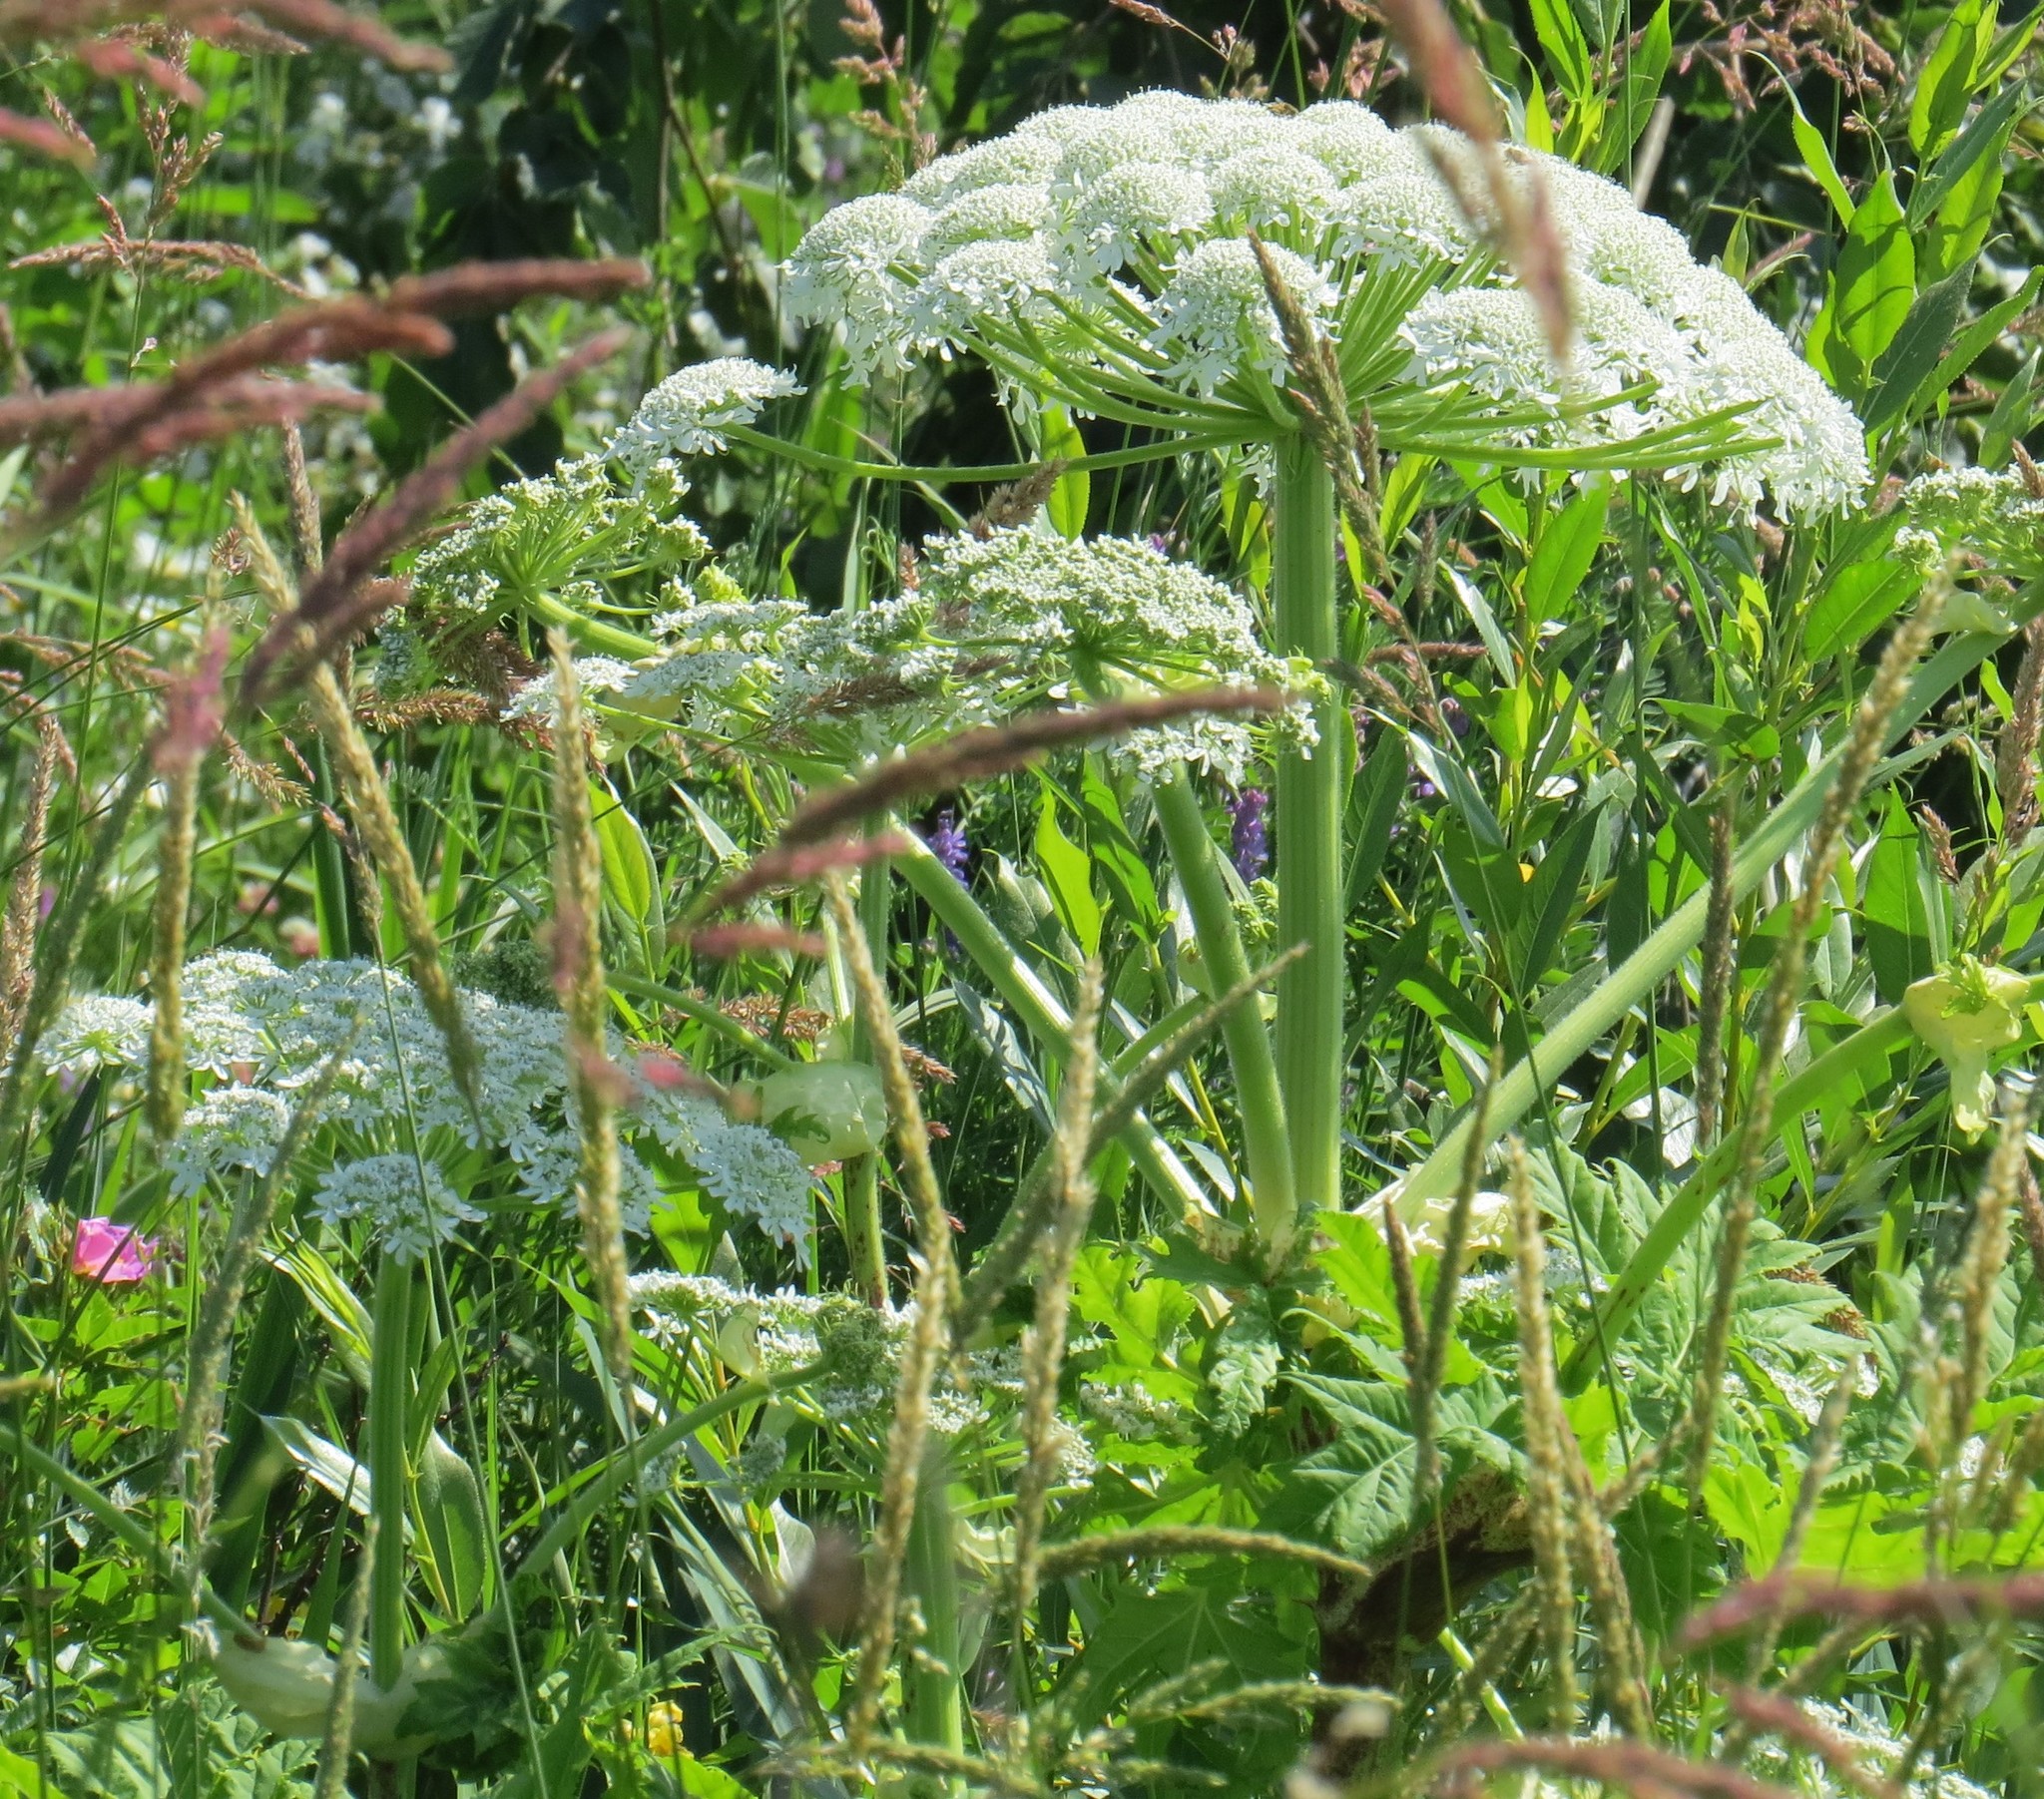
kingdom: Plantae
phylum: Tracheophyta
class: Magnoliopsida
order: Apiales
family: Apiaceae
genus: Heracleum
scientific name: Heracleum maximum
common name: American cow parsnip
